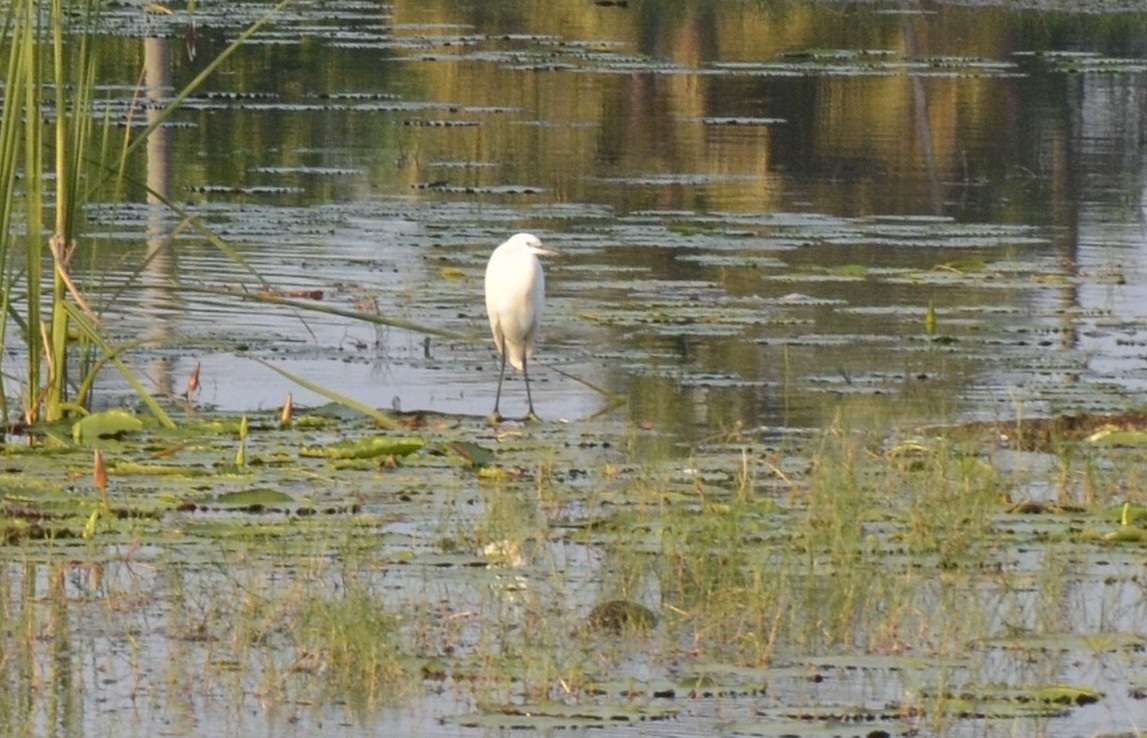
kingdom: Animalia
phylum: Chordata
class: Aves
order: Pelecaniformes
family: Ardeidae
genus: Egretta
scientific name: Egretta garzetta
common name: Little egret
